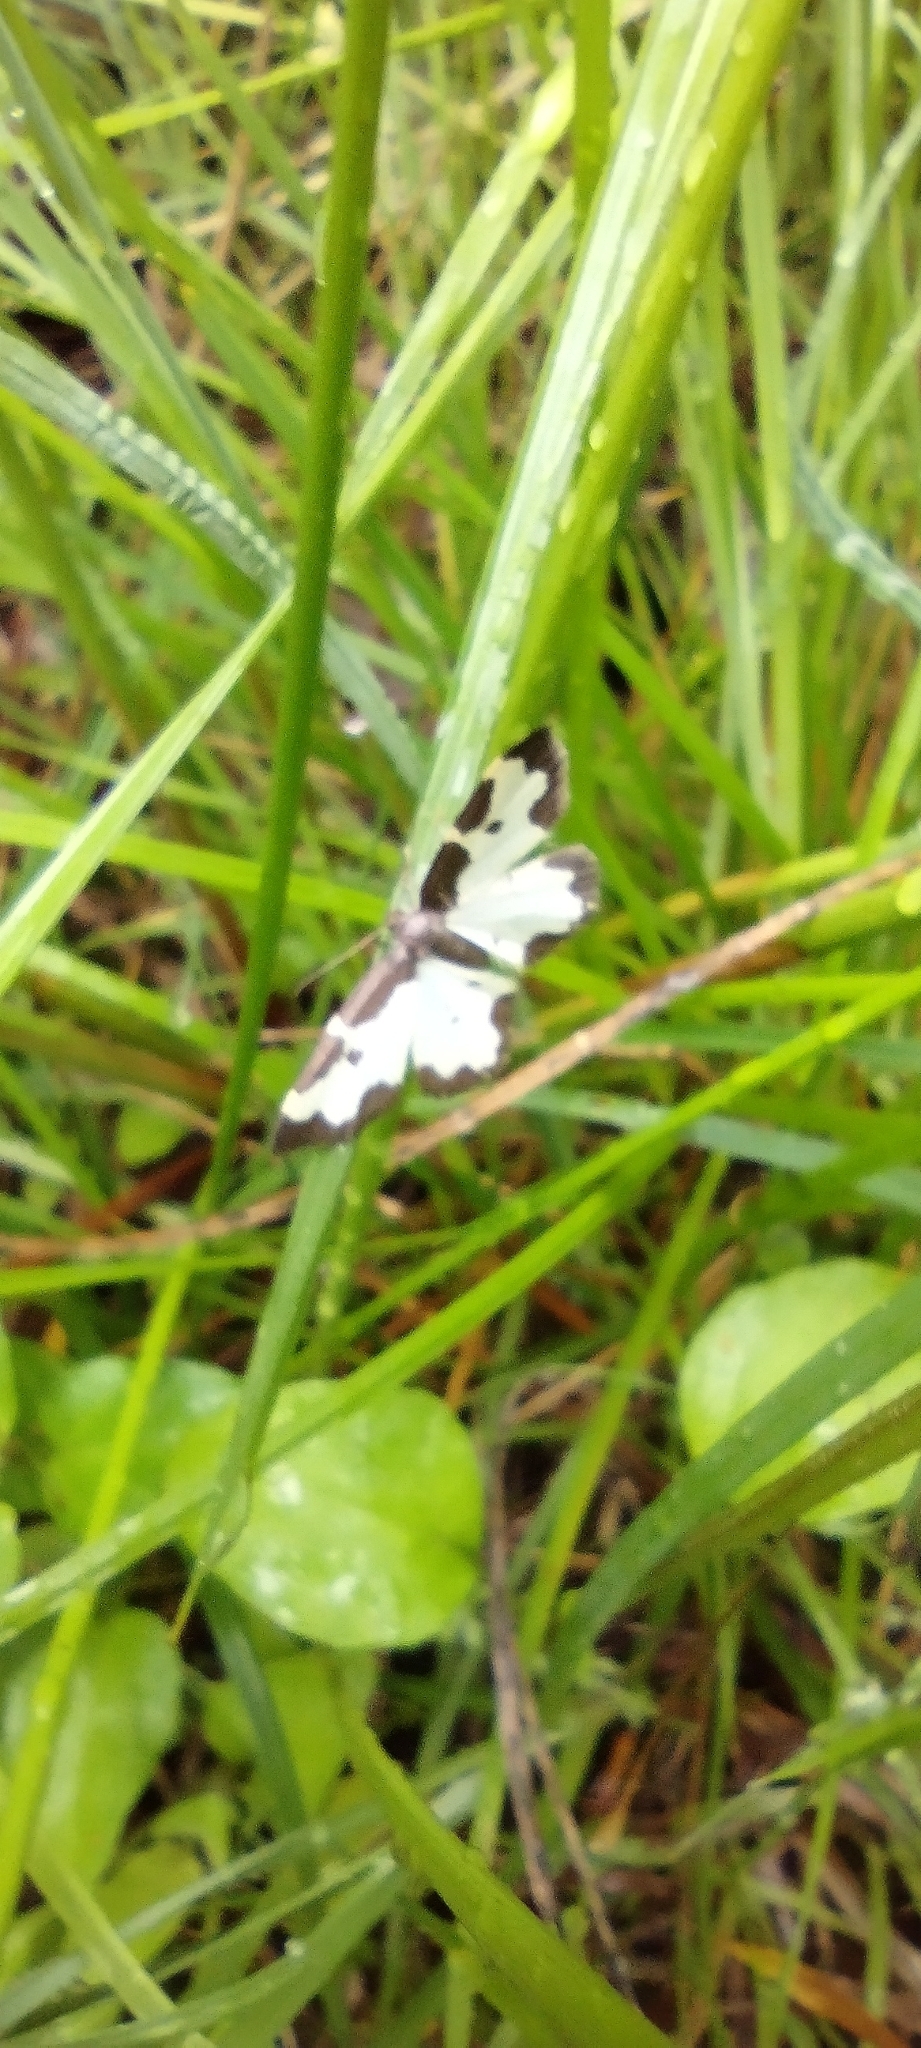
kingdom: Animalia
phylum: Arthropoda
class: Insecta
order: Lepidoptera
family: Geometridae
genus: Lomaspilis
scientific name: Lomaspilis marginata
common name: Clouded border
